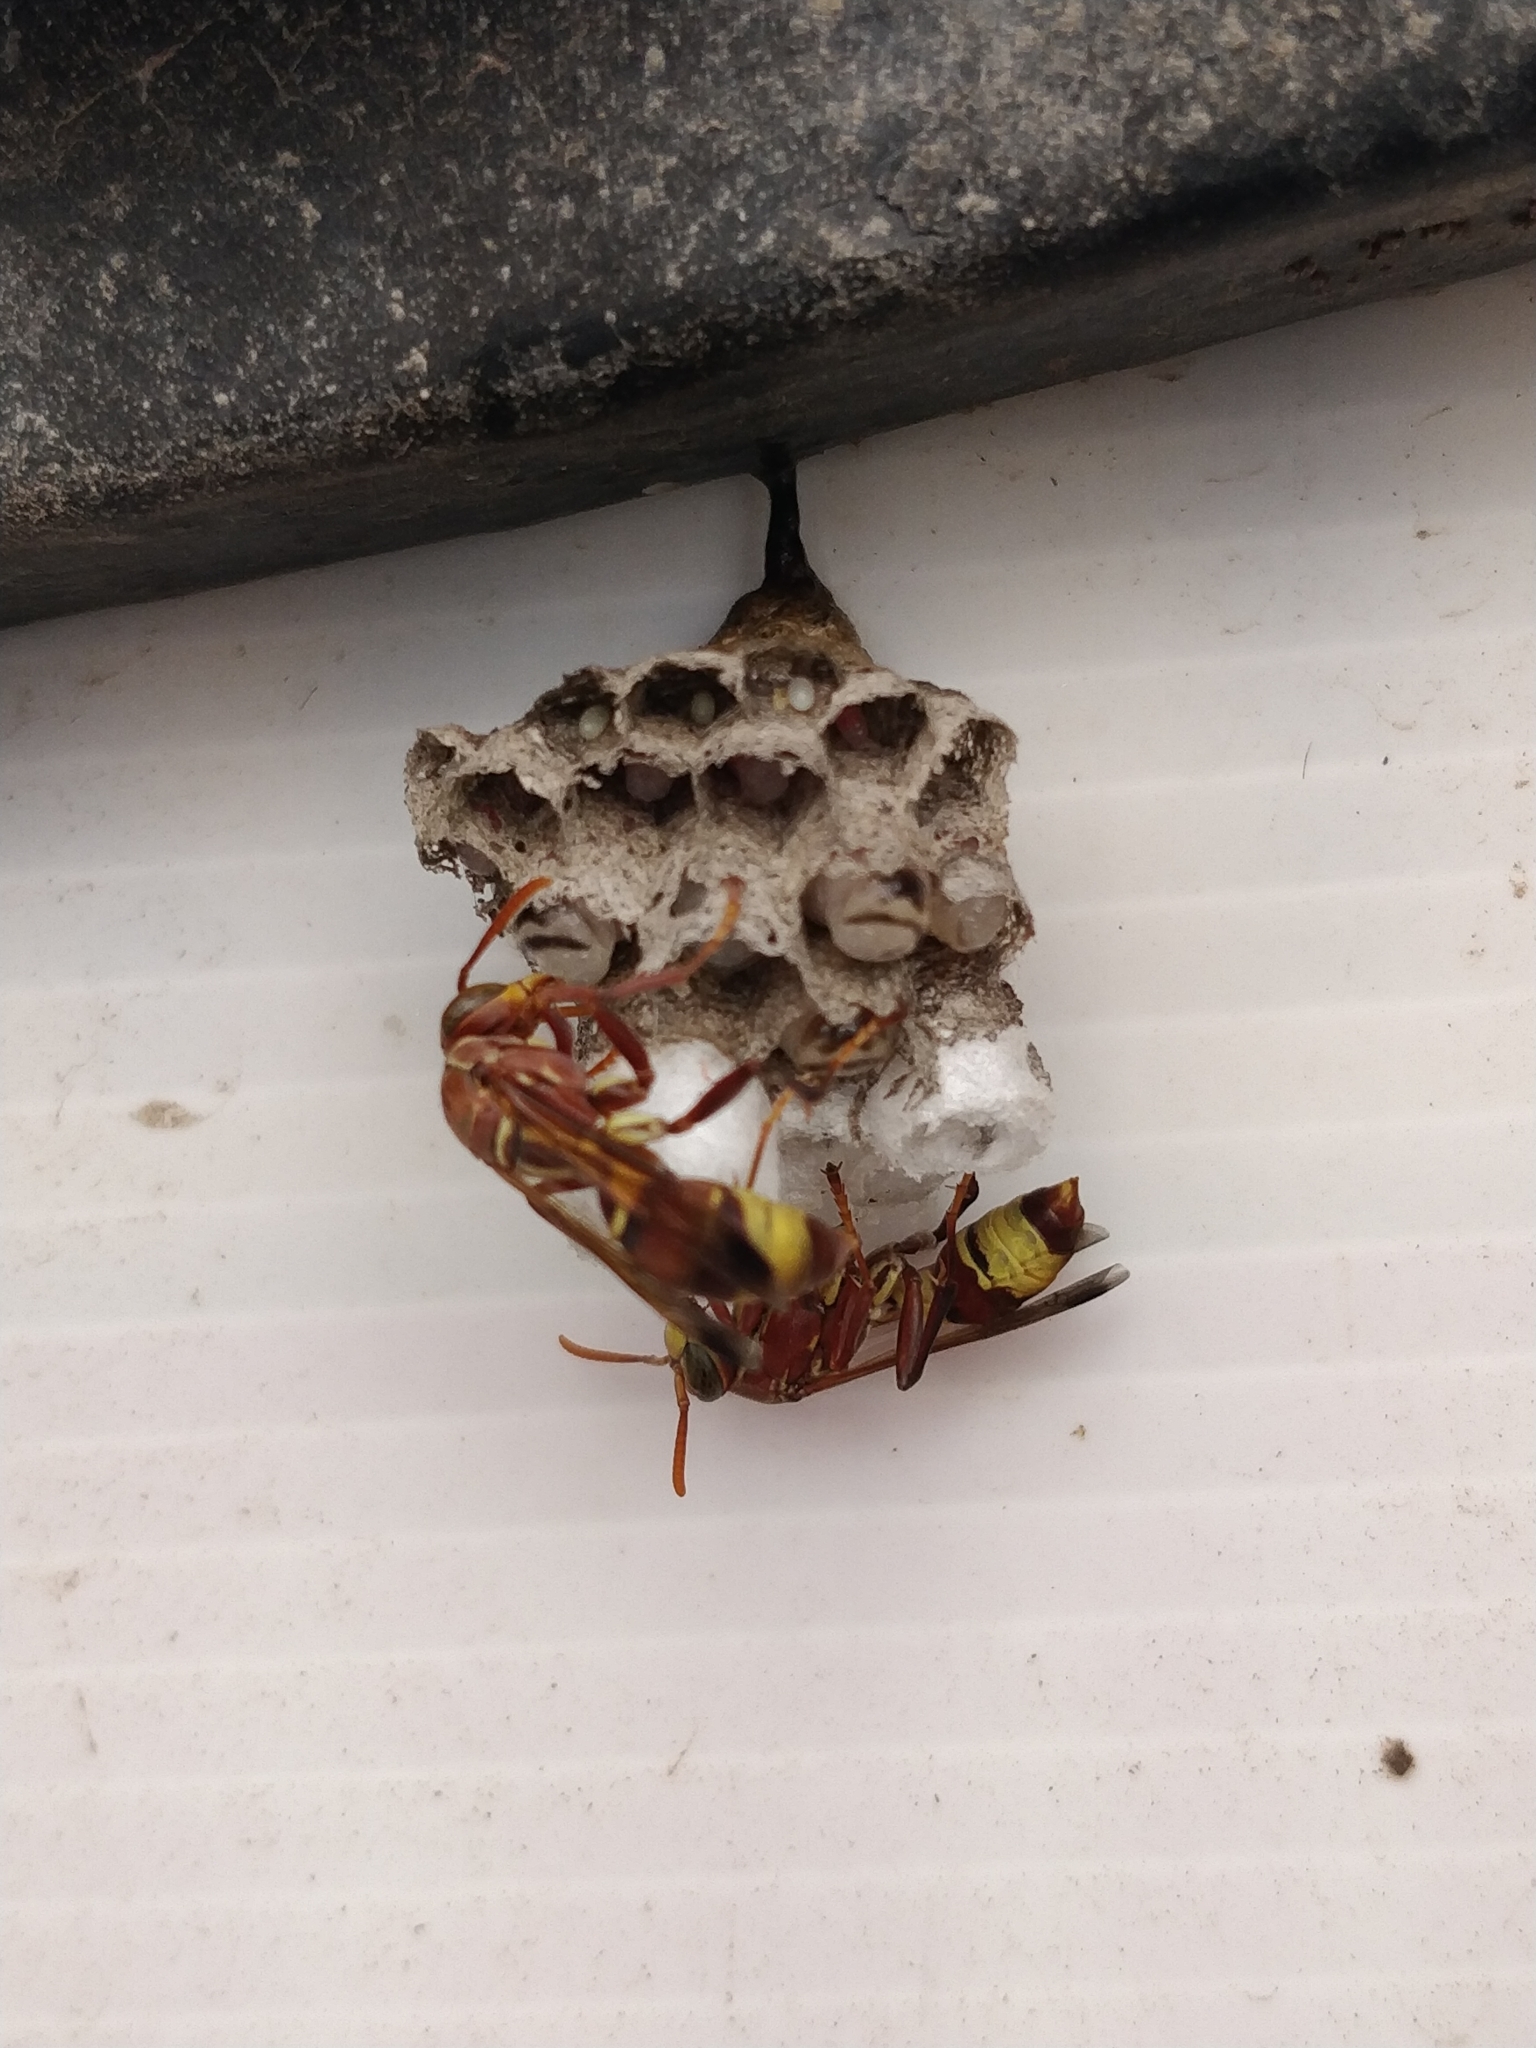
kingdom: Animalia
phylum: Arthropoda
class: Insecta
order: Hymenoptera
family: Eumenidae
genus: Polistes
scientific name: Polistes stigma
